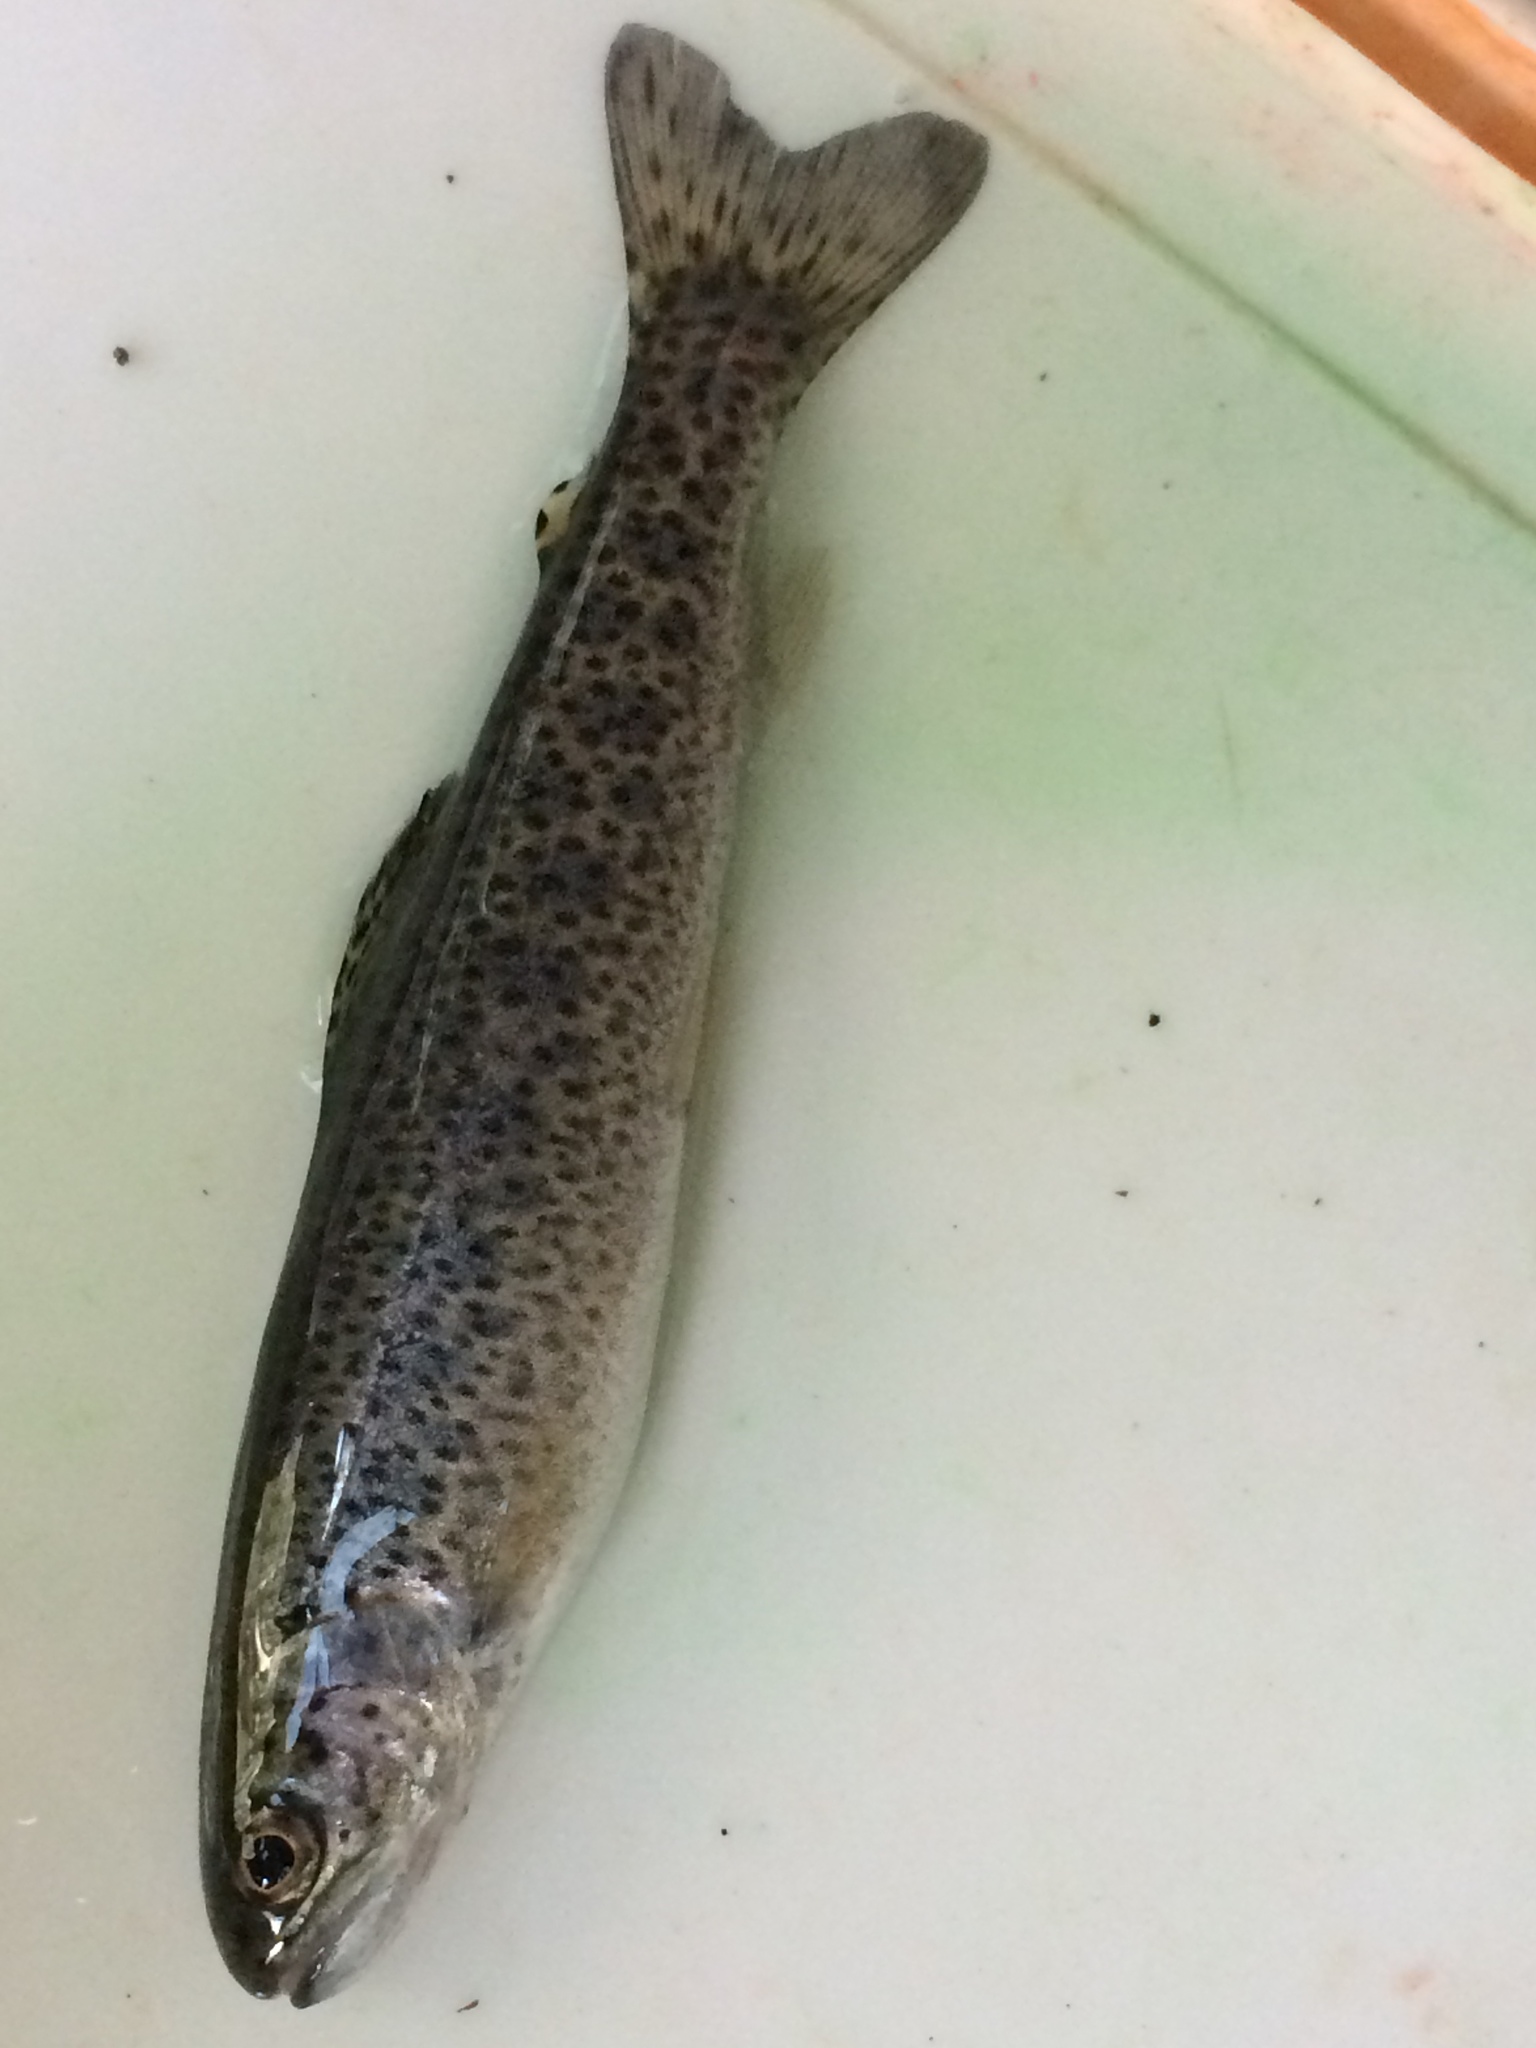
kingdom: Animalia
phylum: Chordata
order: Salmoniformes
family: Salmonidae
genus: Oncorhynchus
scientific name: Oncorhynchus clarkii
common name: Cutthroat trout
